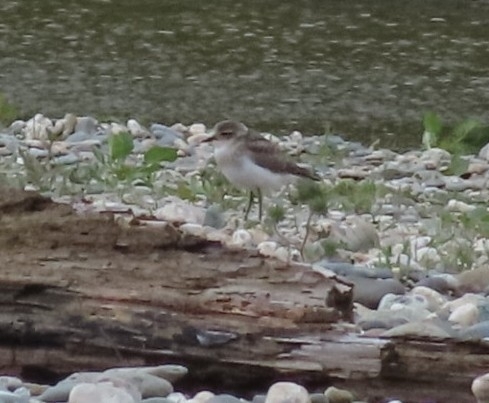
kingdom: Animalia
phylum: Chordata
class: Aves
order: Charadriiformes
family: Charadriidae
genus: Anarhynchus
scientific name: Anarhynchus
